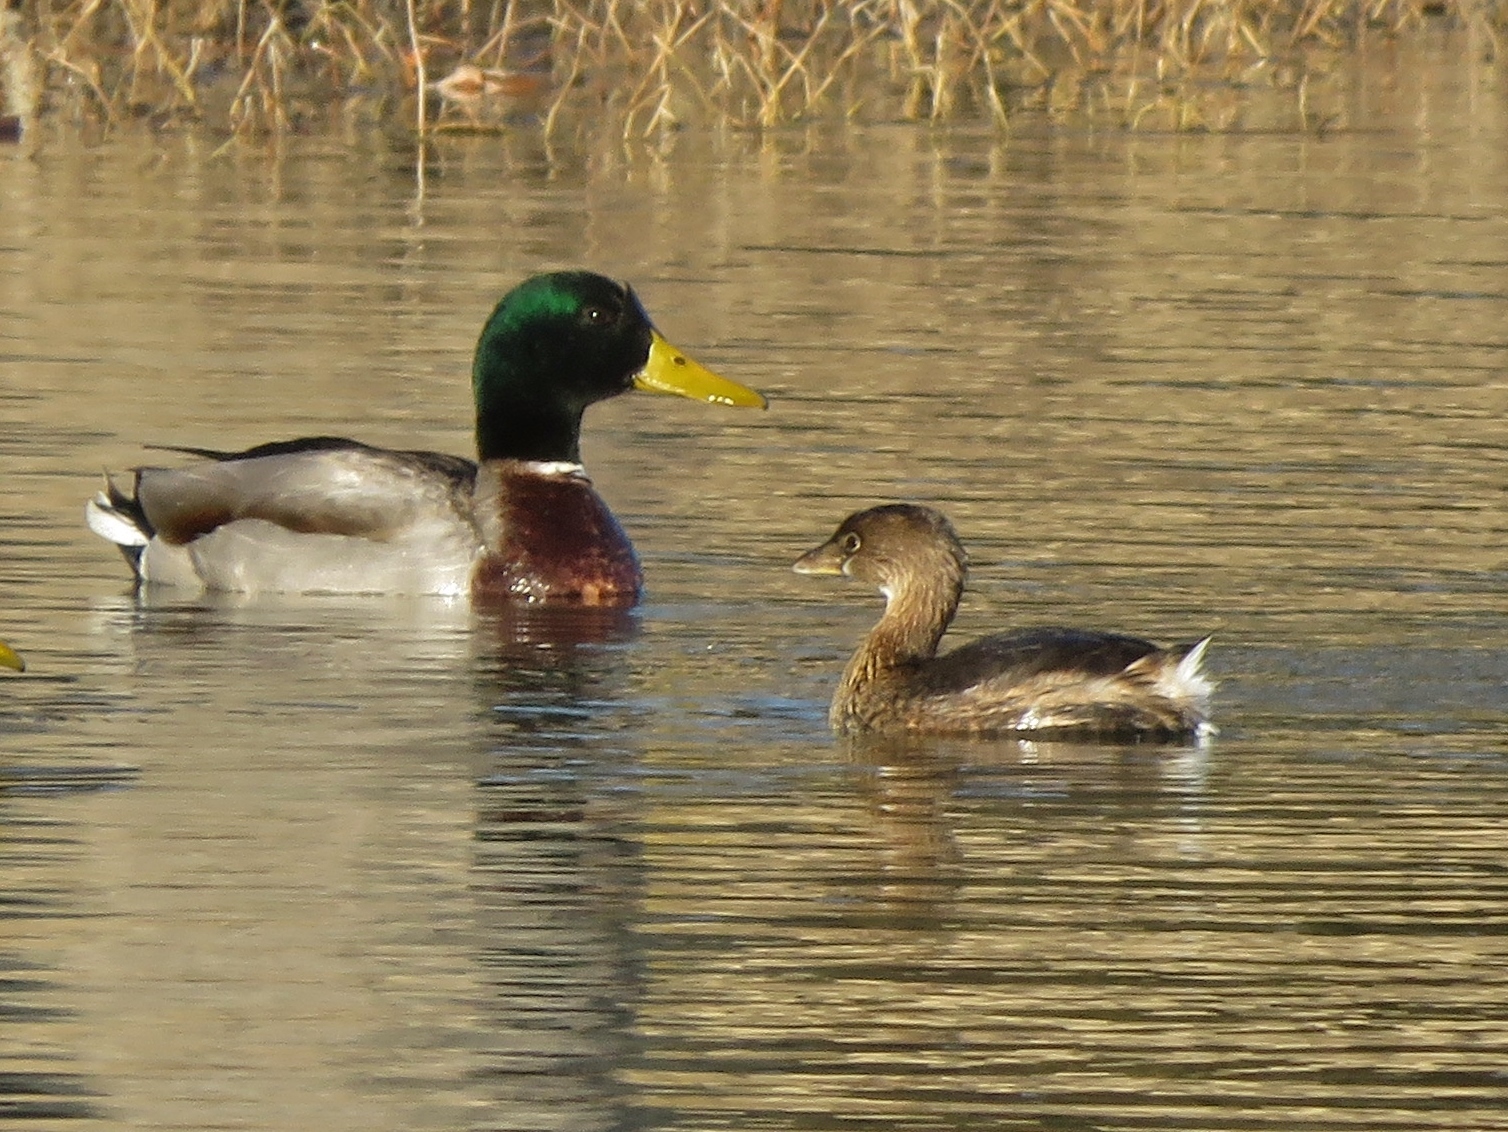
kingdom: Animalia
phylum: Chordata
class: Aves
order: Anseriformes
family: Anatidae
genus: Anas
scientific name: Anas platyrhynchos
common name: Mallard
